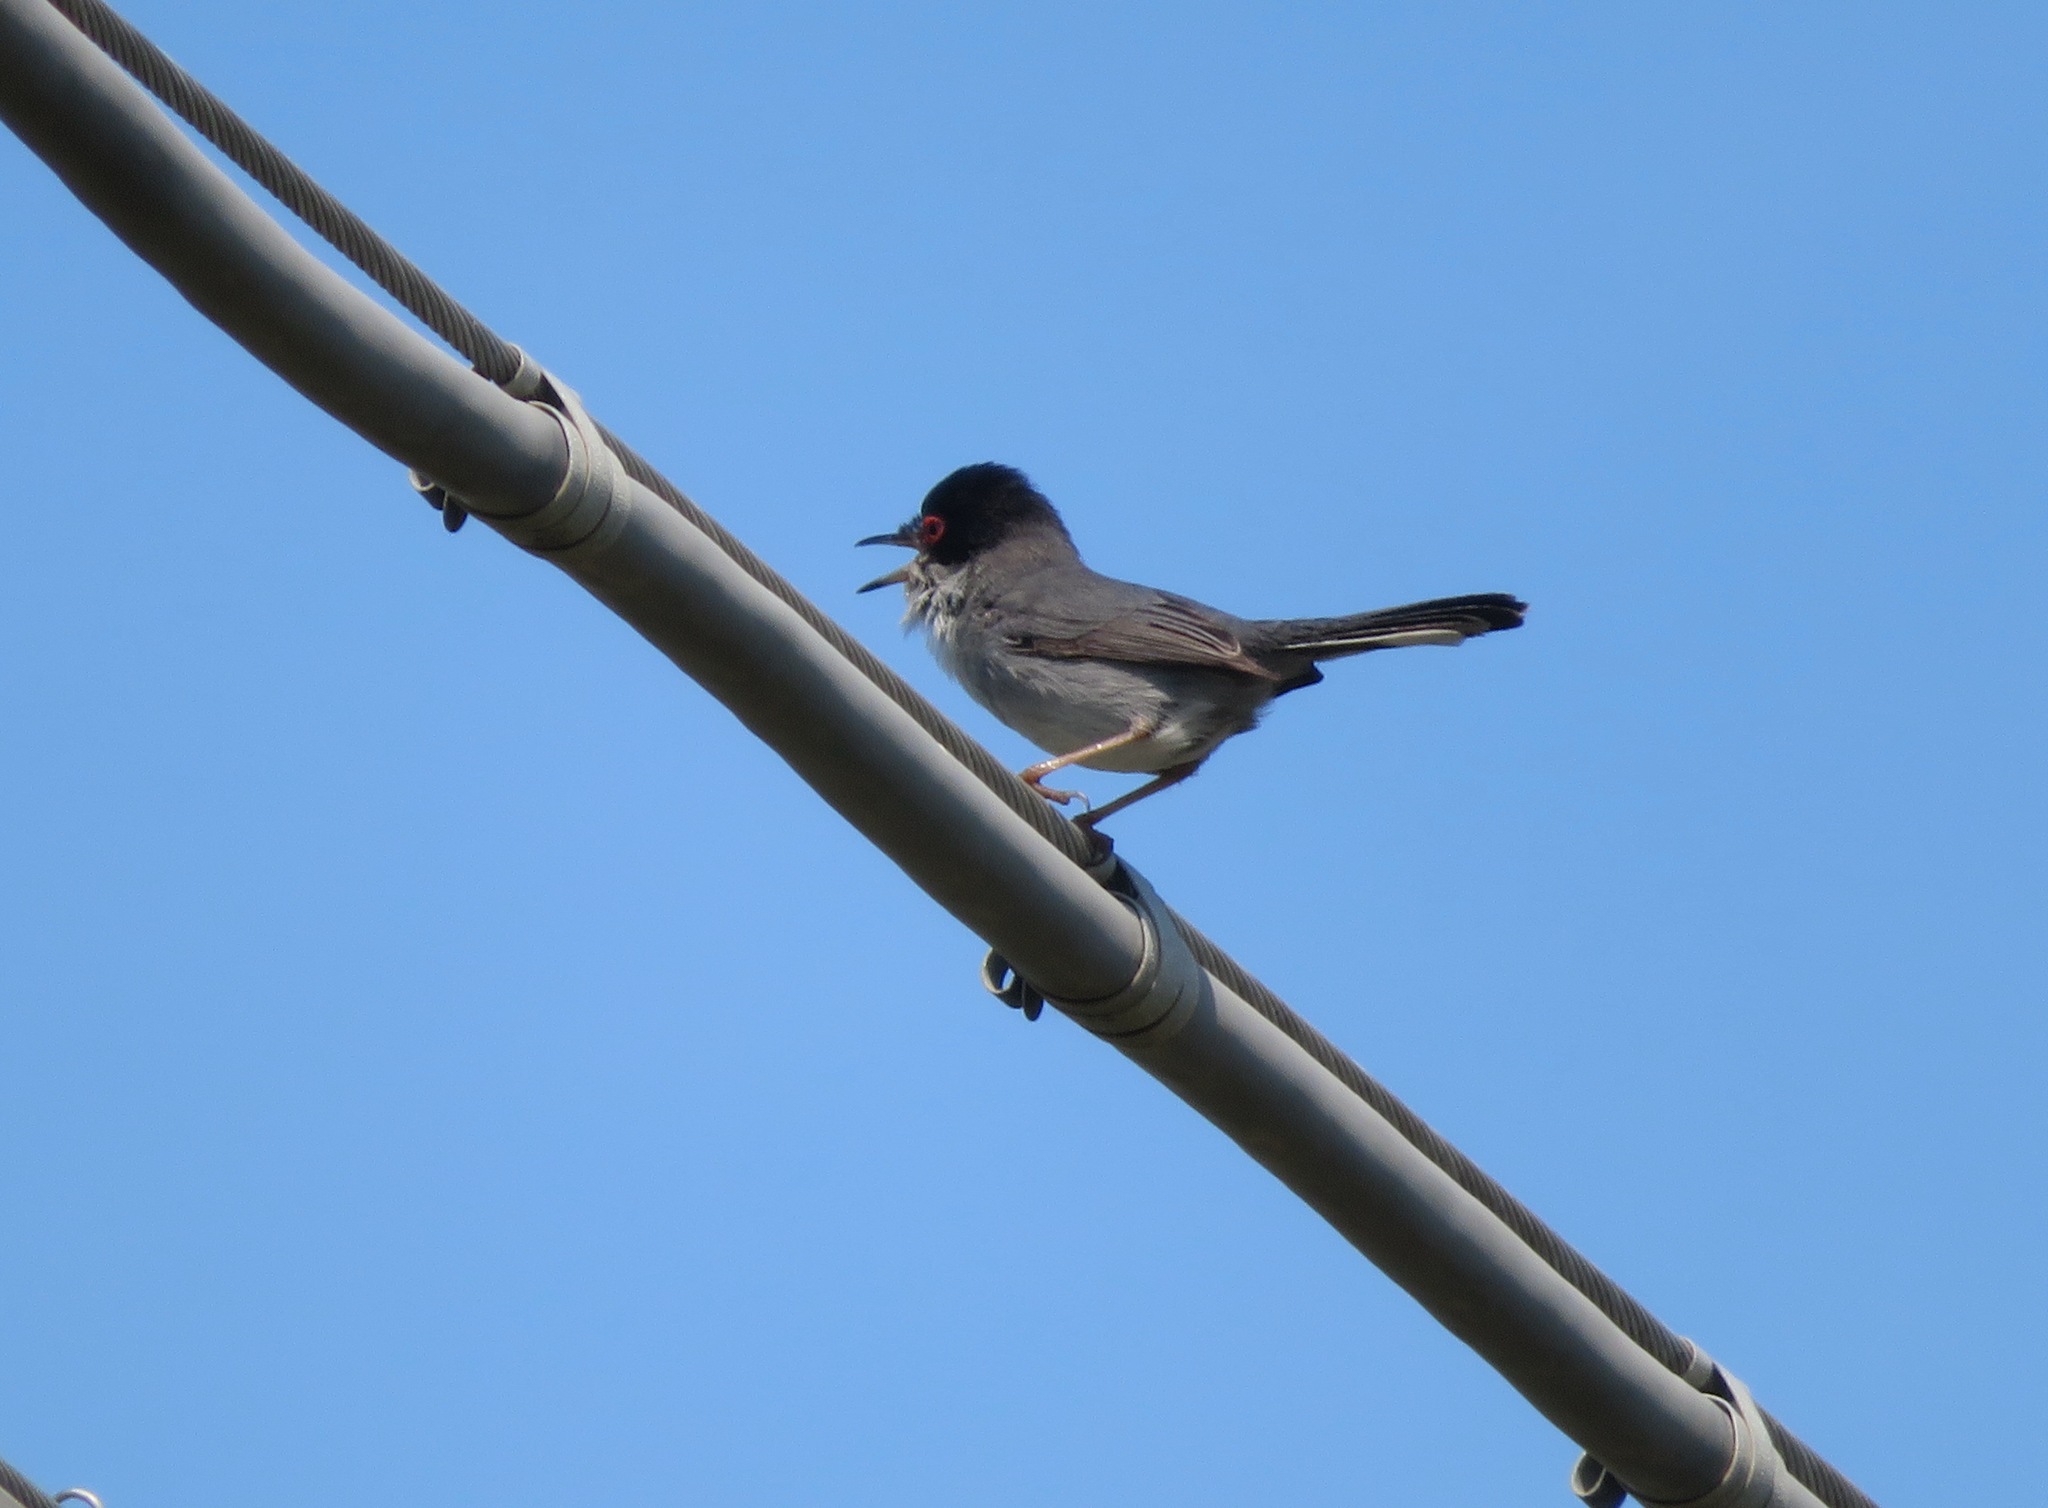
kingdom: Animalia
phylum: Chordata
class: Aves
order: Passeriformes
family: Sylviidae
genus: Curruca
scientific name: Curruca melanocephala
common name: Sardinian warbler
